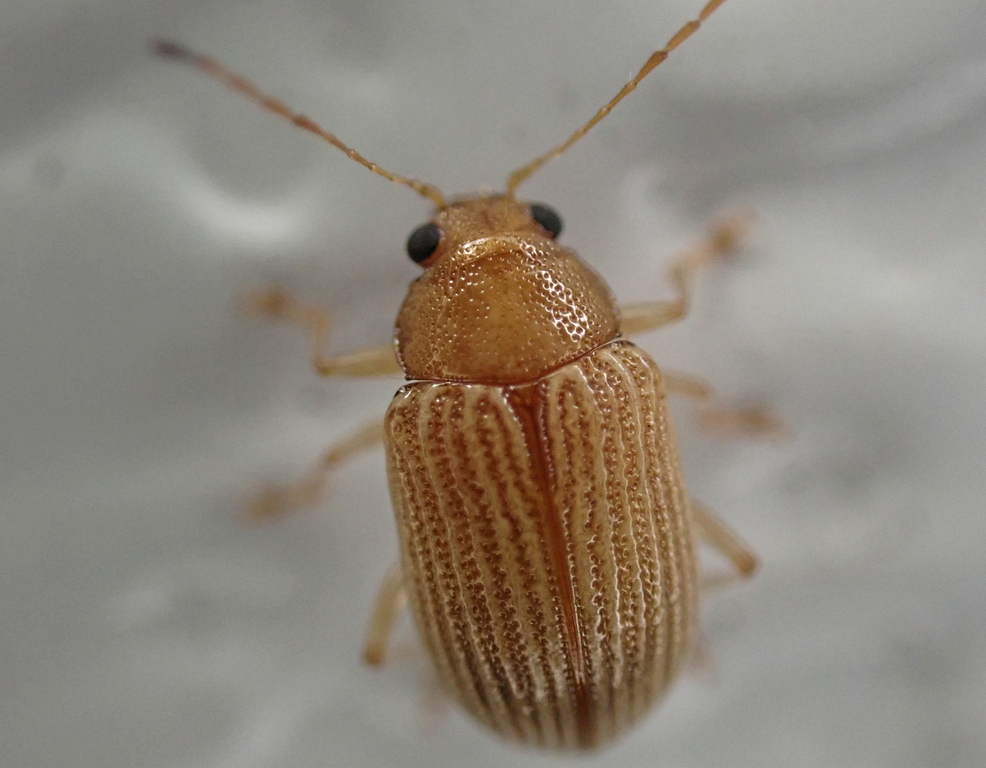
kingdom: Animalia
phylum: Arthropoda
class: Insecta
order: Coleoptera
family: Chrysomelidae
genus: Colaspis
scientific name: Colaspis brunnea
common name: Grape colaspis
